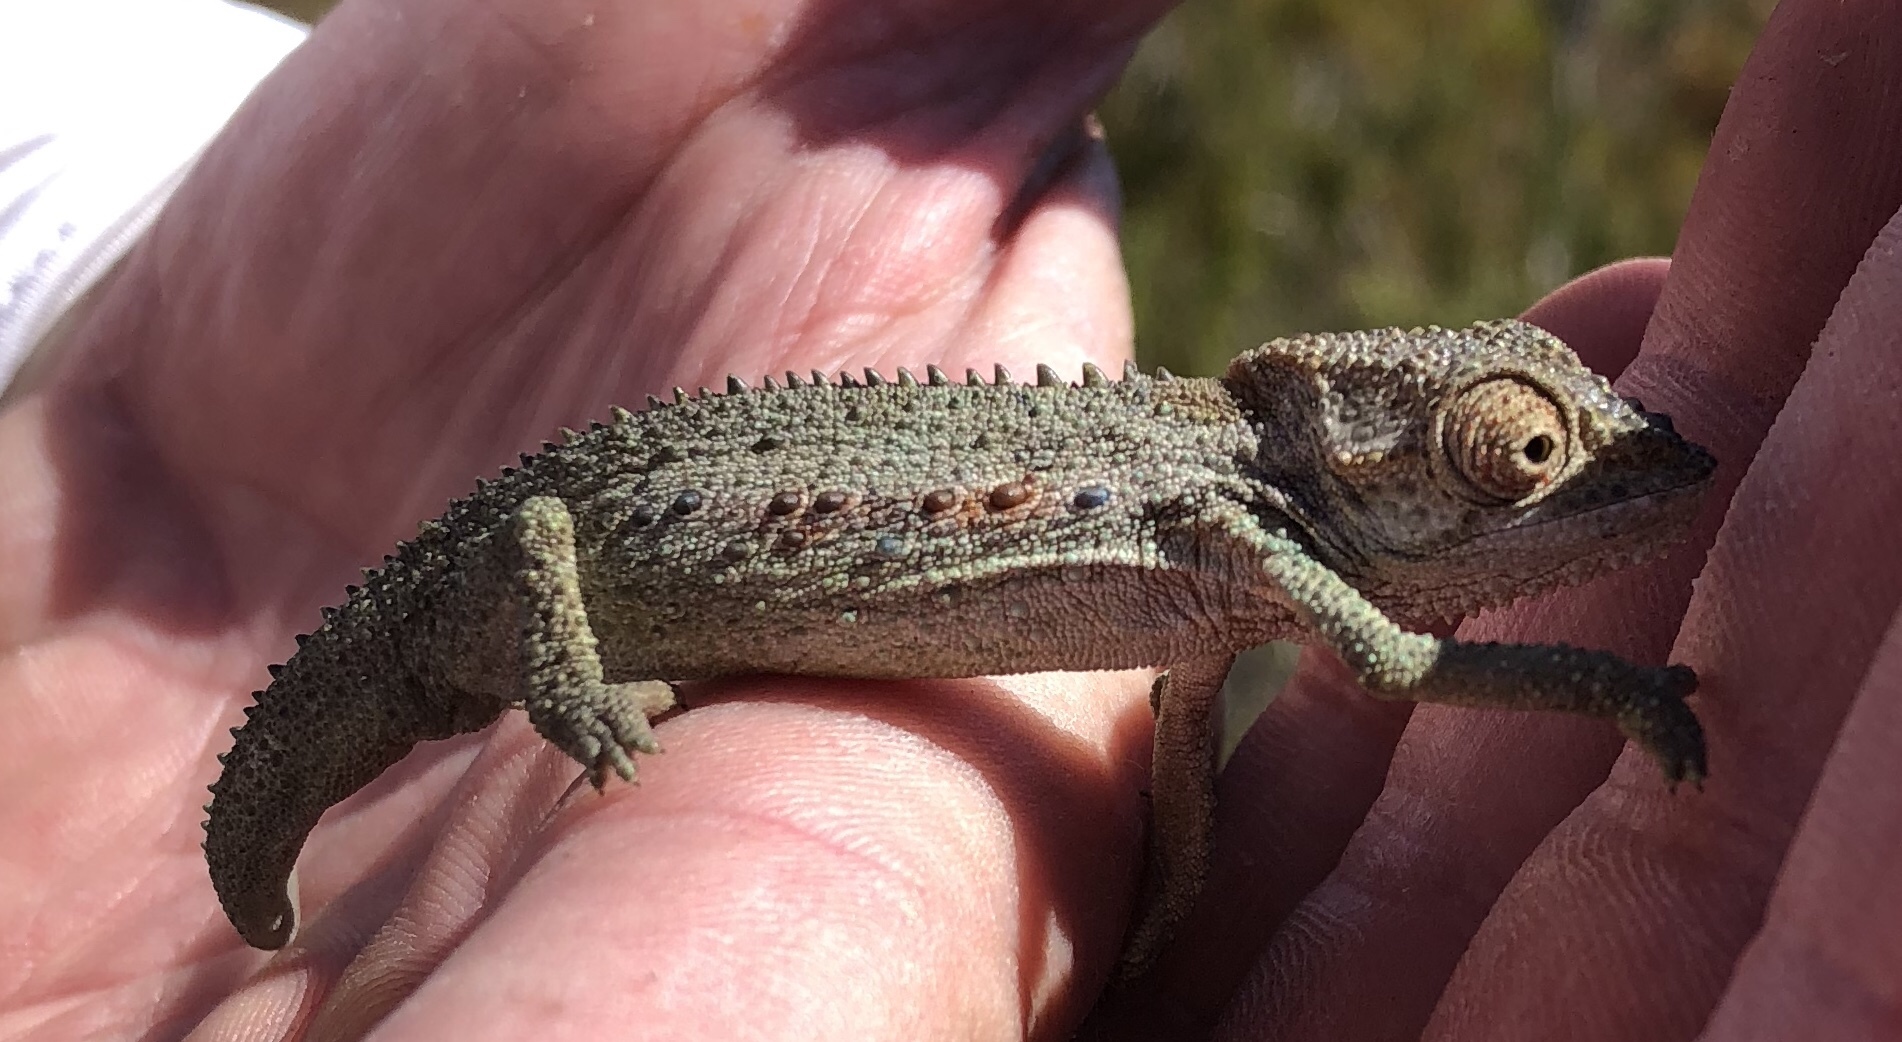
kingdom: Animalia
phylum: Chordata
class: Squamata
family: Chamaeleonidae
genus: Bradypodion
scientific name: Bradypodion gutturale
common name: Little karoo dwarf chameleon
